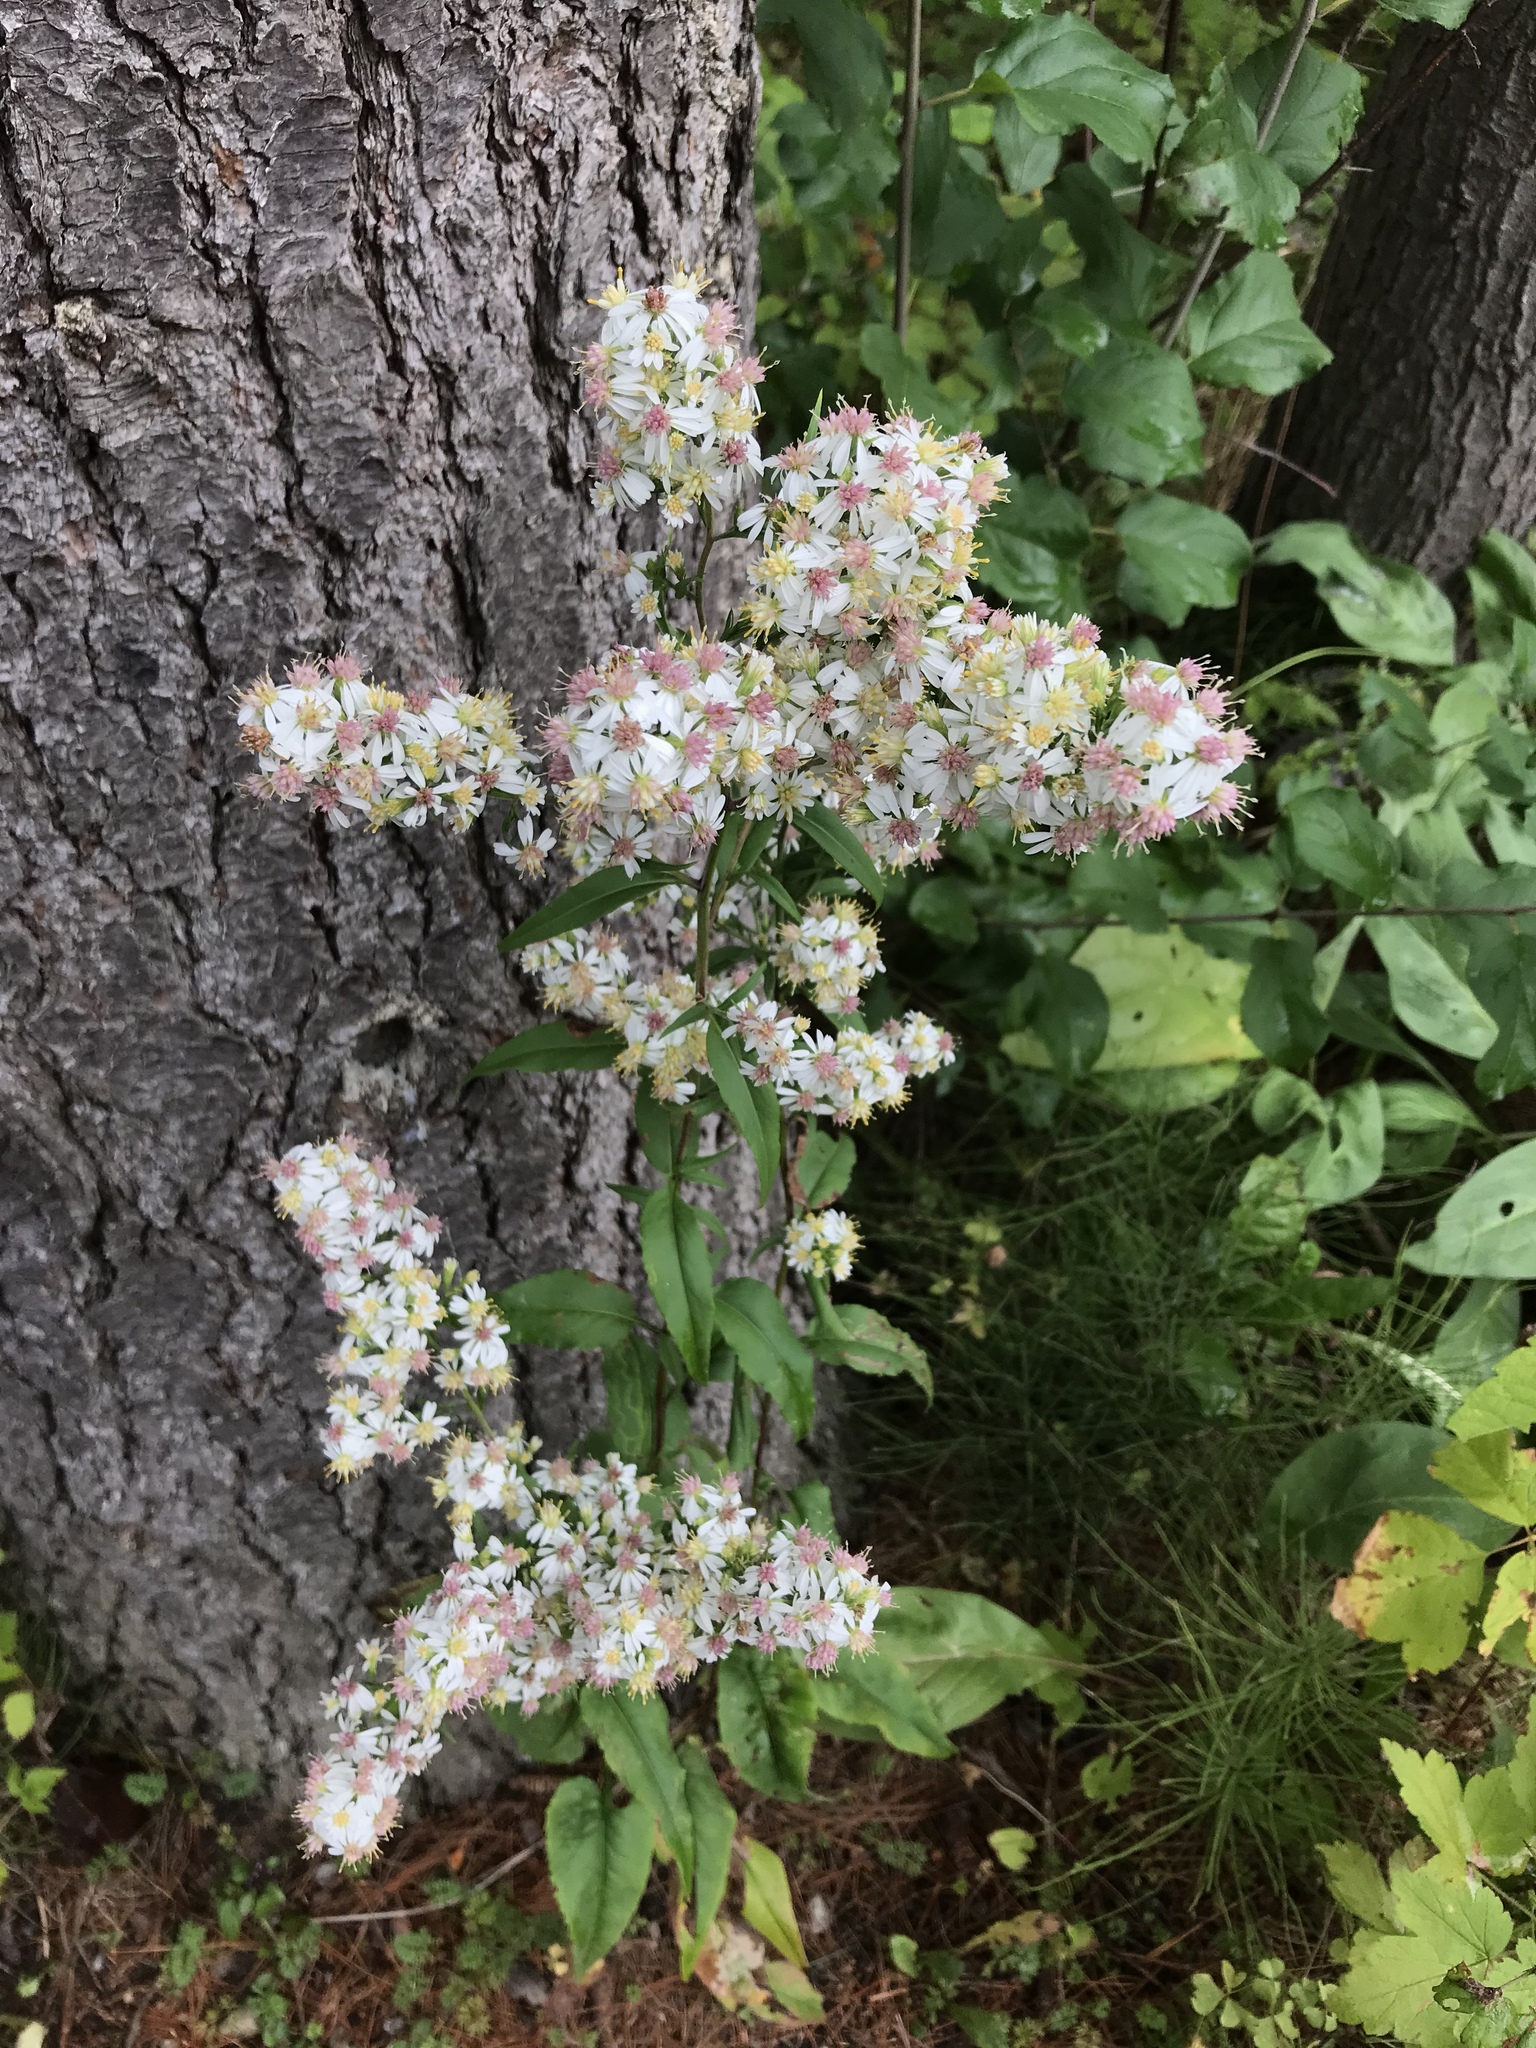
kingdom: Plantae
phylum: Tracheophyta
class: Magnoliopsida
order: Asterales
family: Asteraceae
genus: Symphyotrichum
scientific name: Symphyotrichum urophyllum
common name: Arrow-leaved aster
